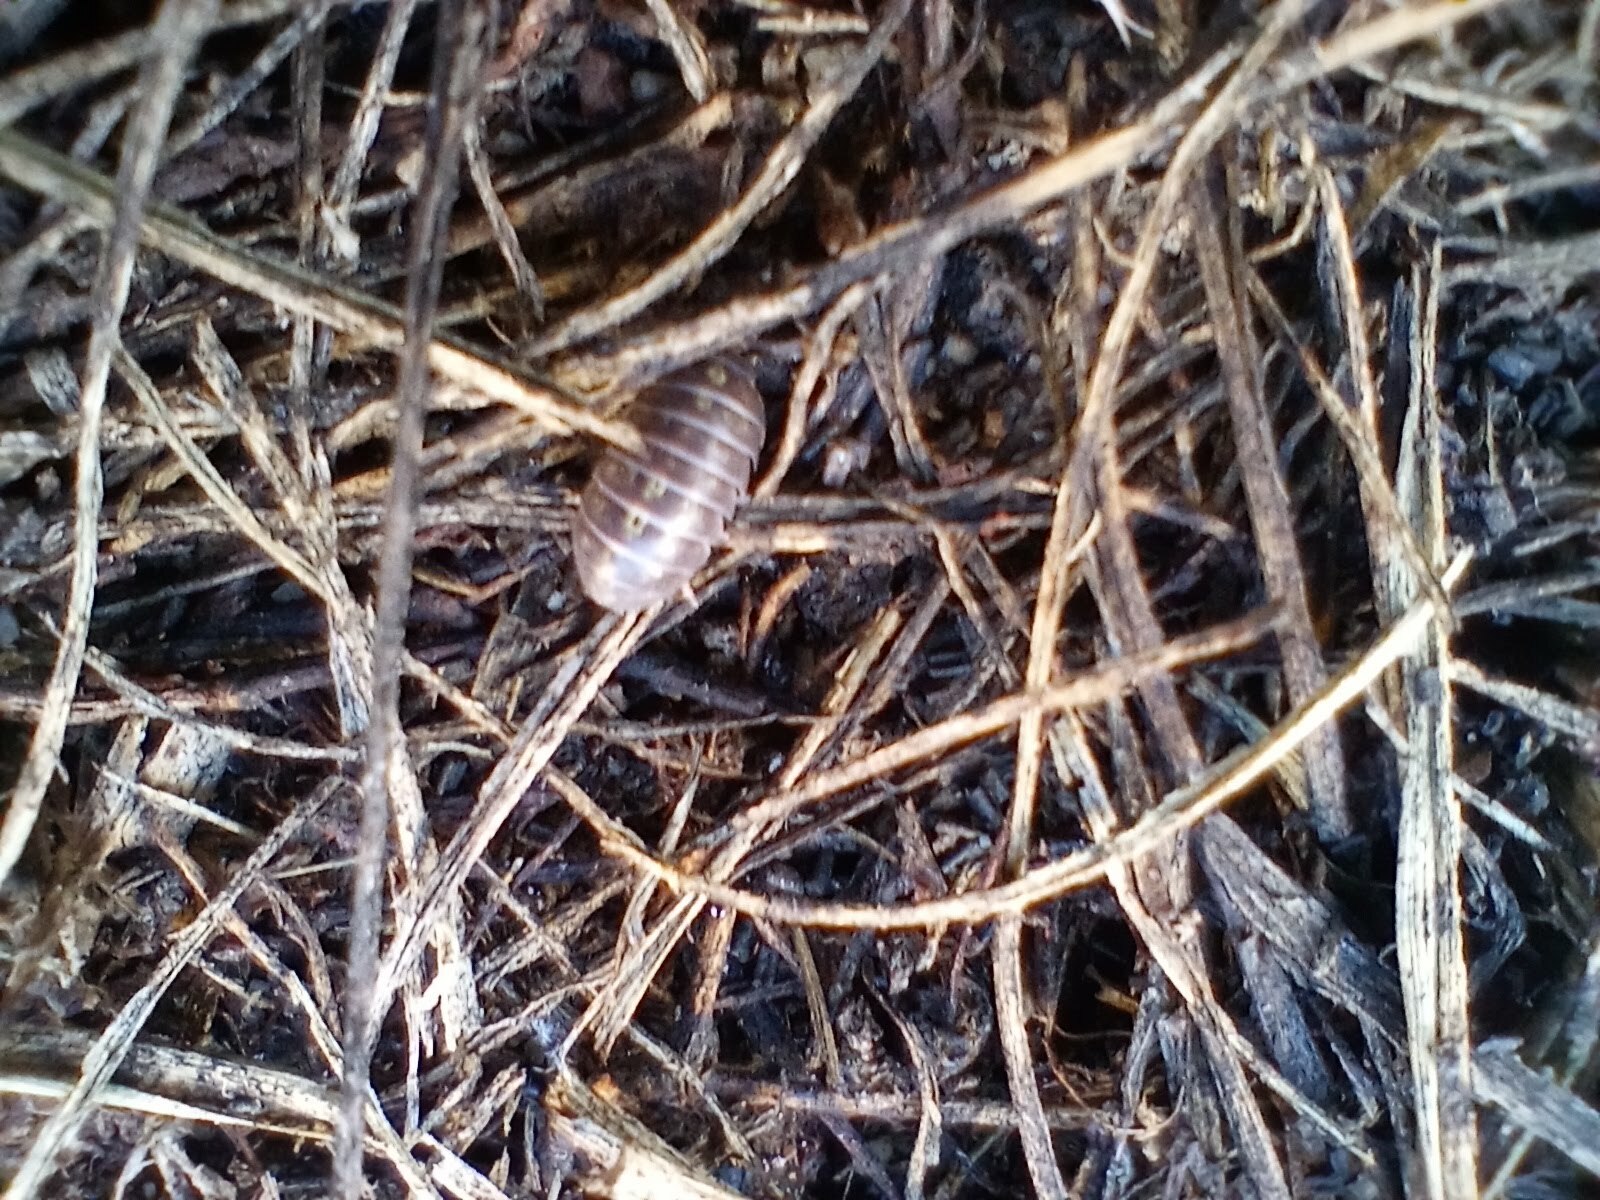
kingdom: Animalia
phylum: Arthropoda
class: Malacostraca
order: Isopoda
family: Armadillidiidae
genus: Armadillidium
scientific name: Armadillidium vulgare
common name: Common pill woodlouse
